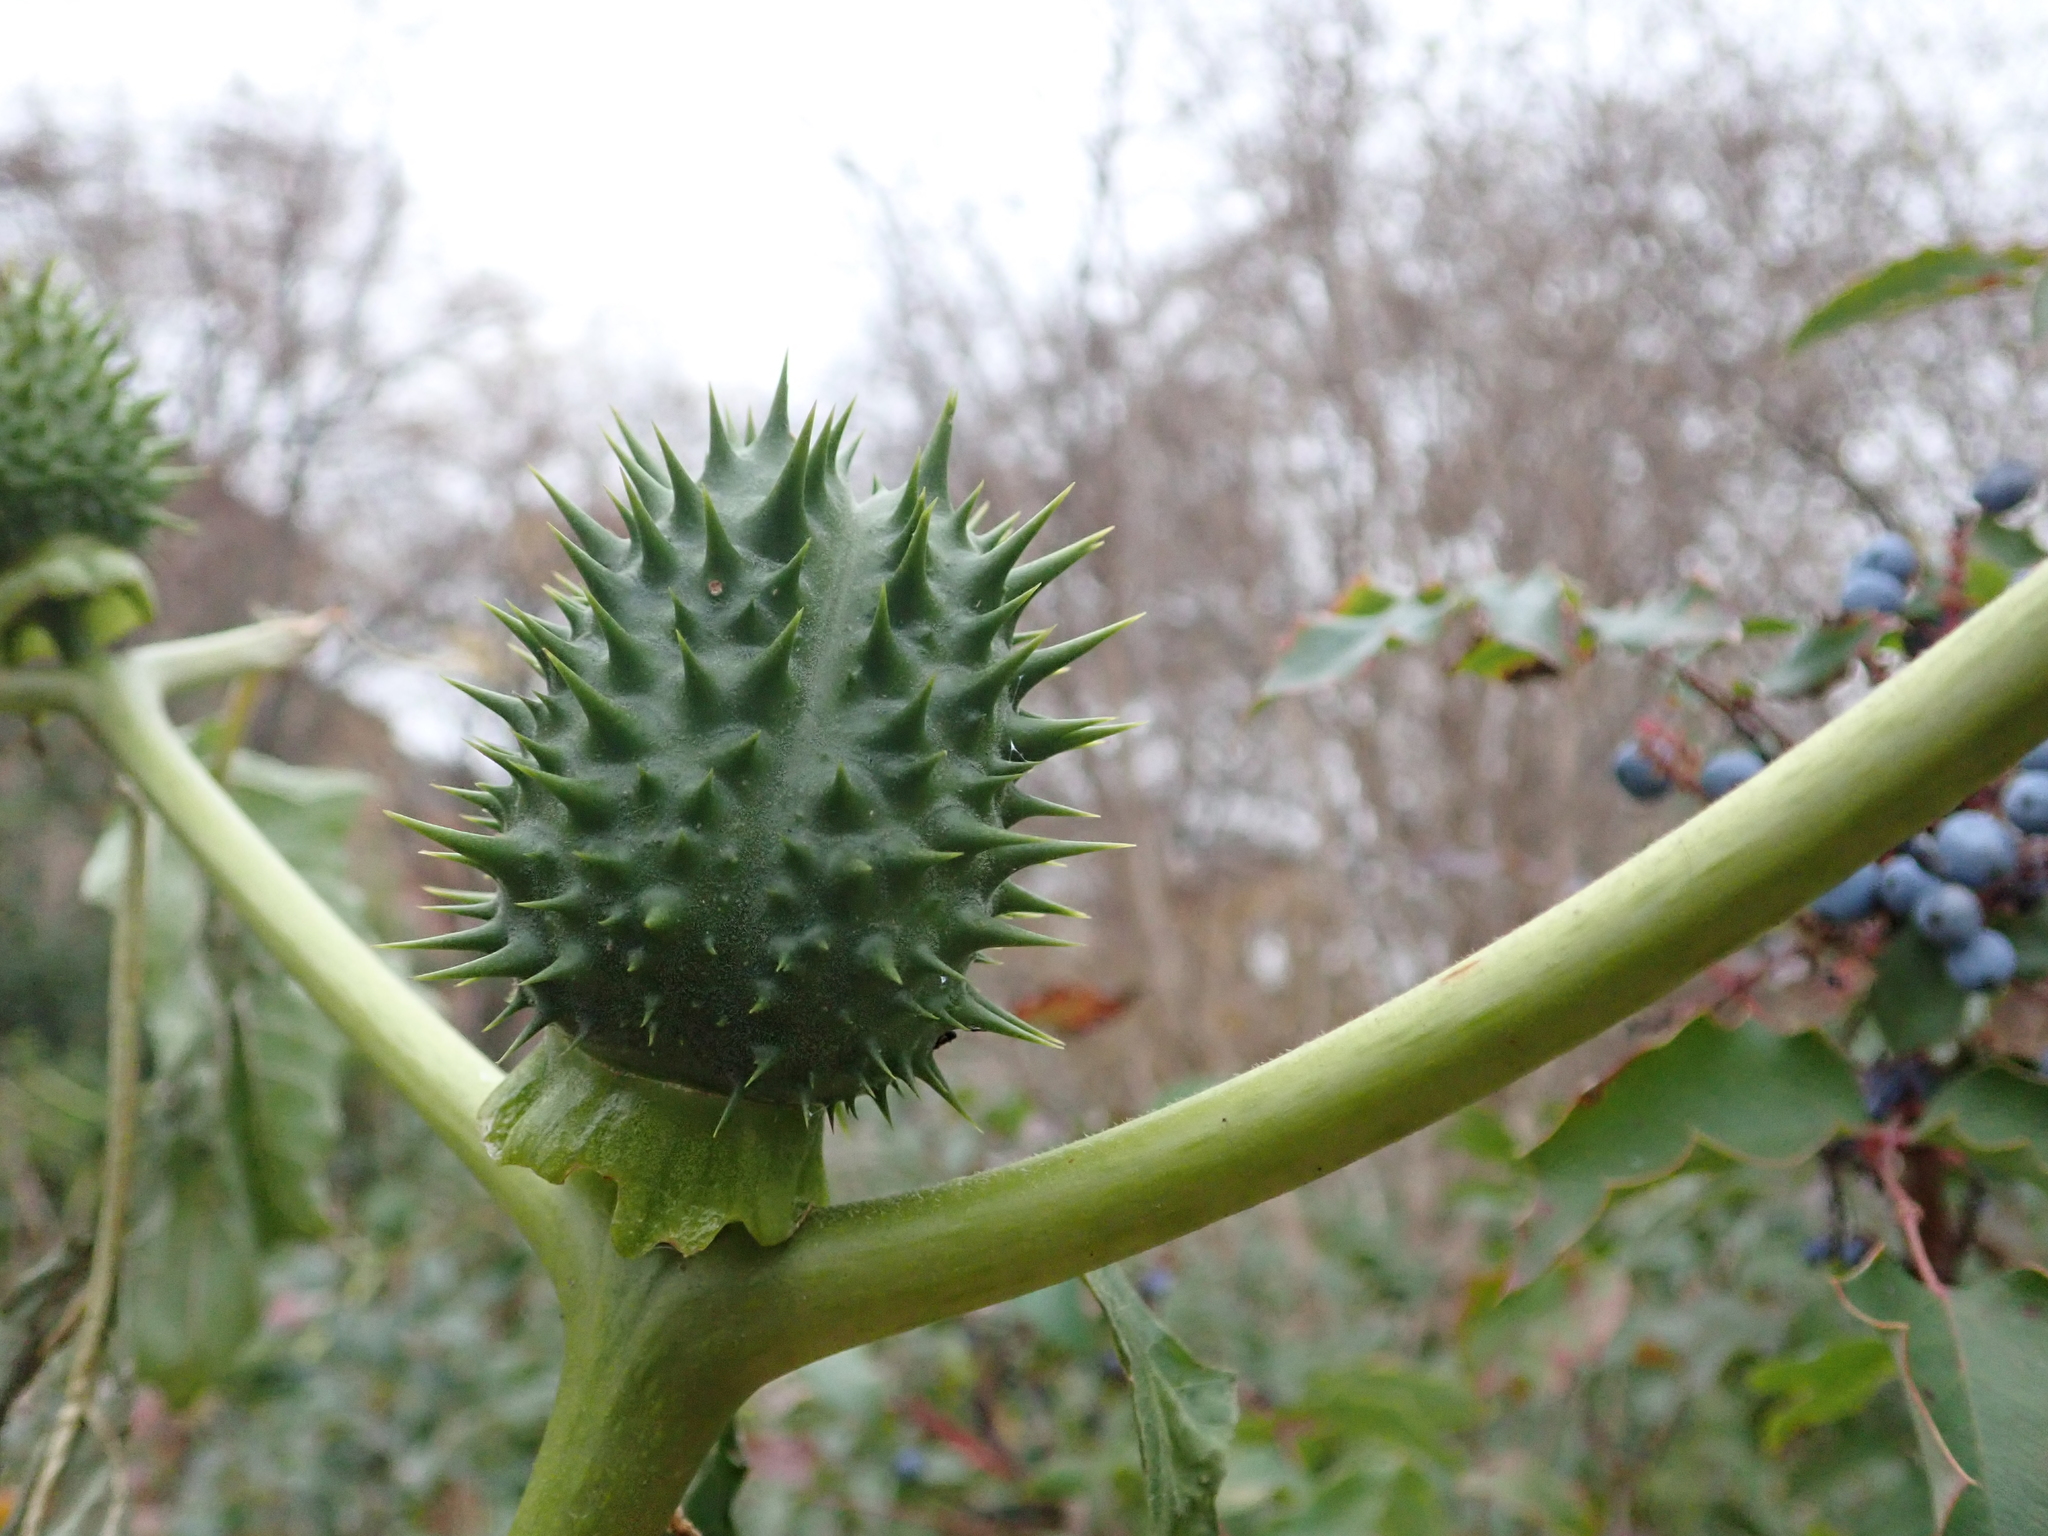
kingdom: Plantae
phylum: Tracheophyta
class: Magnoliopsida
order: Solanales
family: Solanaceae
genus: Datura
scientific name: Datura stramonium
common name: Thorn-apple
